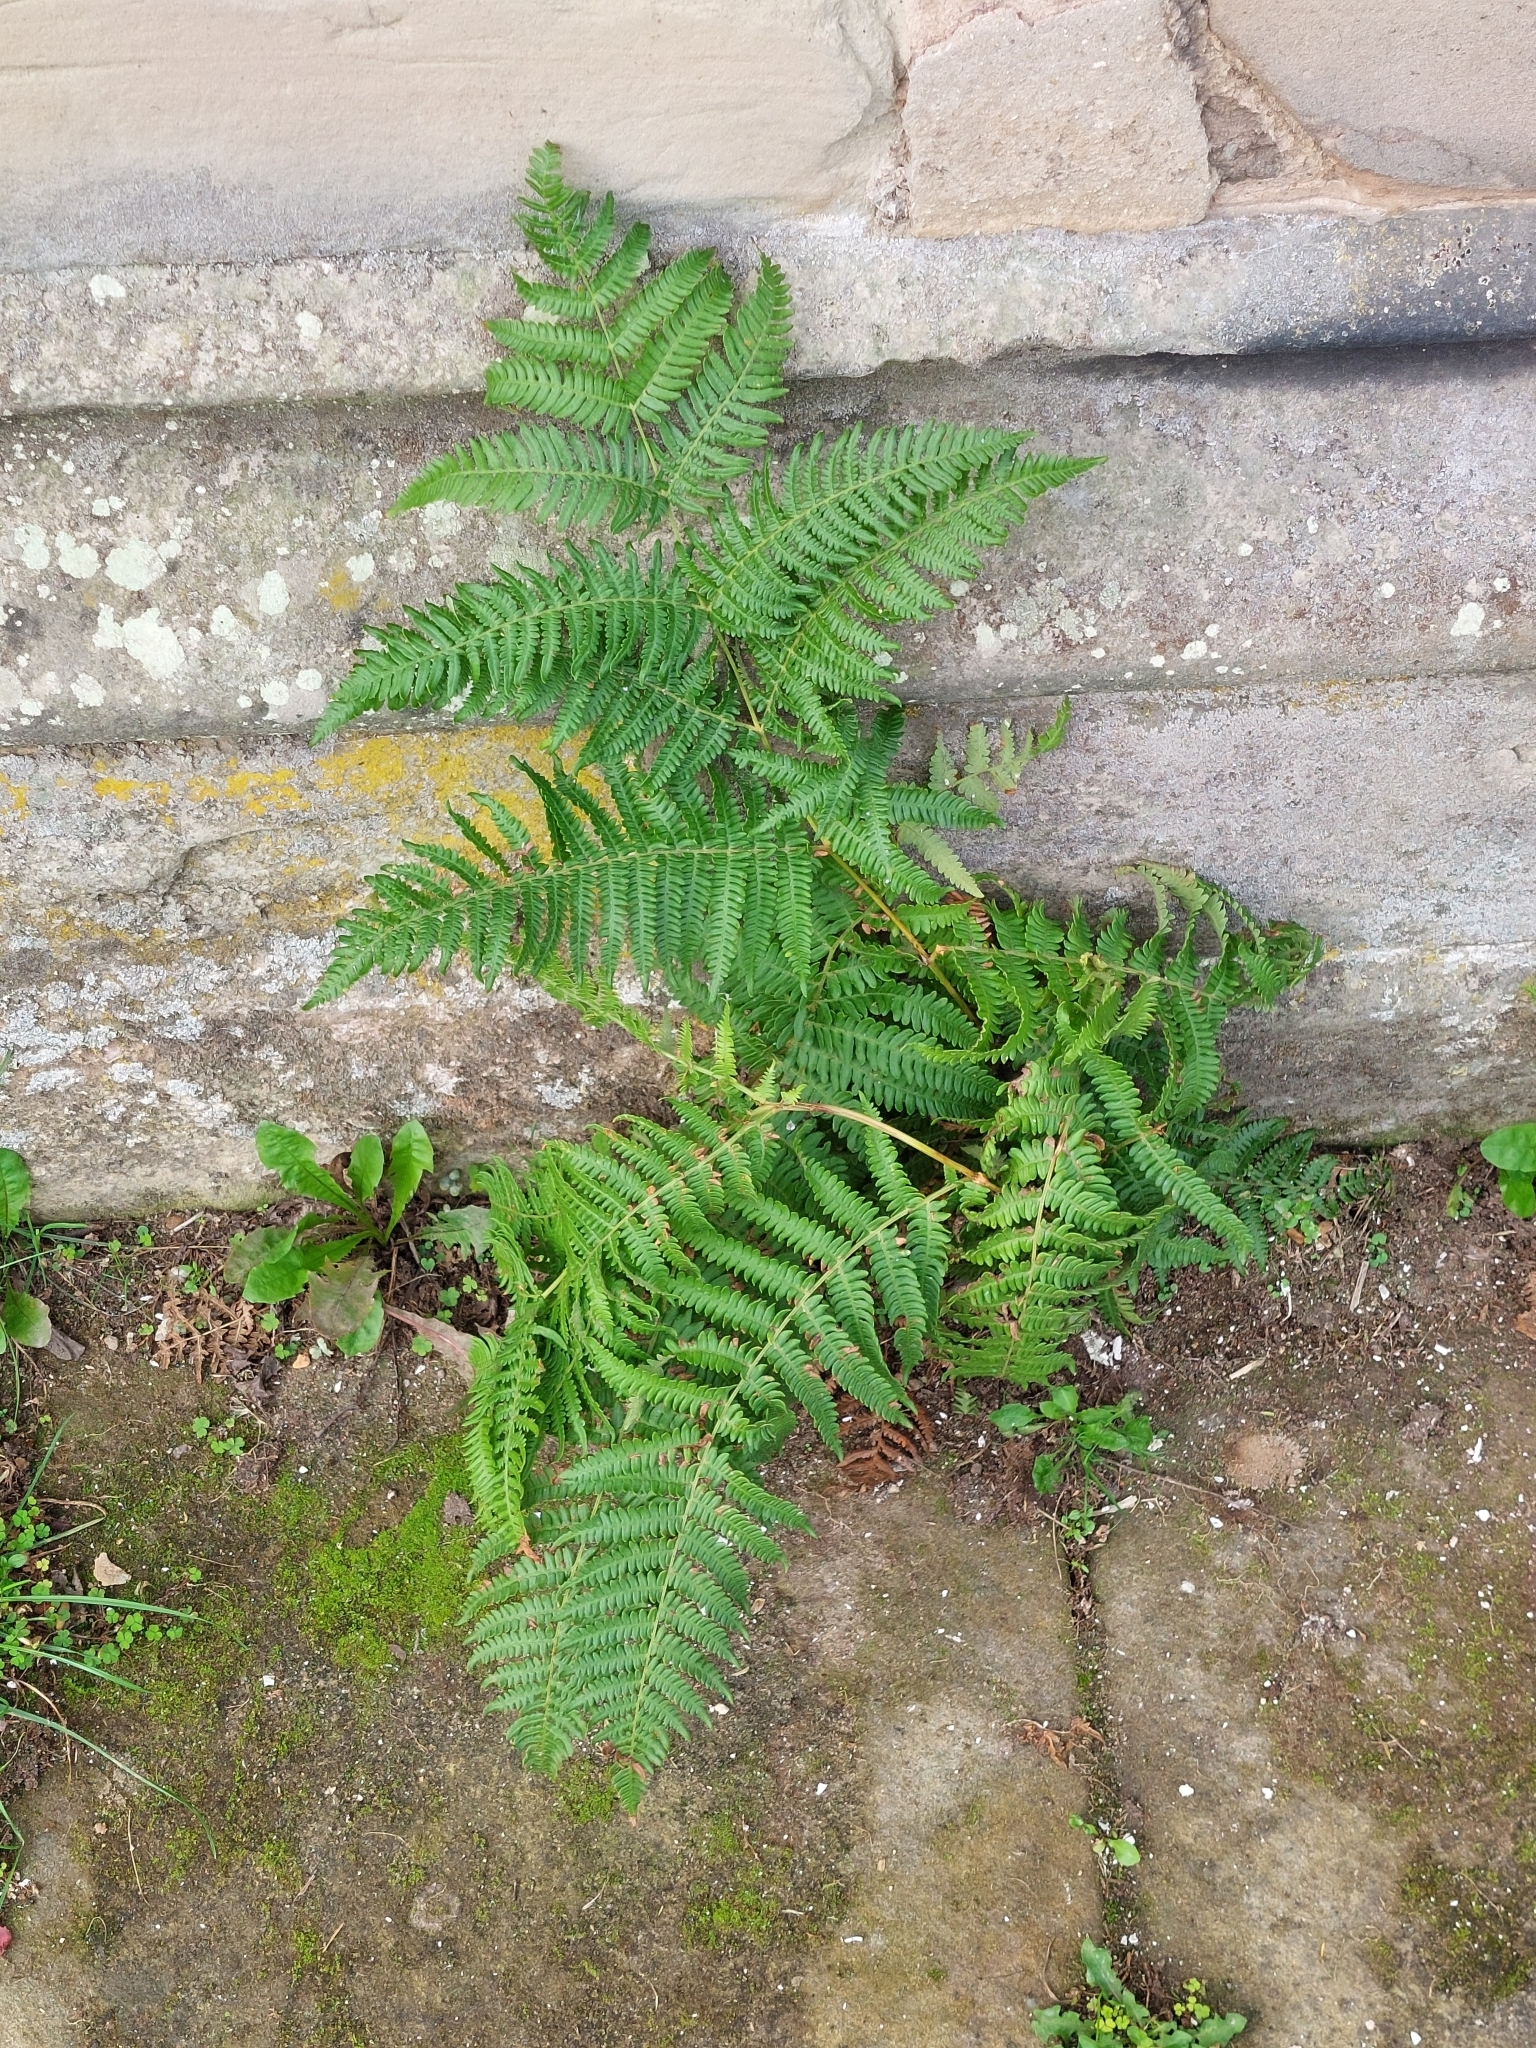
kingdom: Plantae
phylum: Tracheophyta
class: Polypodiopsida
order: Polypodiales
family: Dennstaedtiaceae
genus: Pteridium
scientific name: Pteridium aquilinum
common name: Bracken
